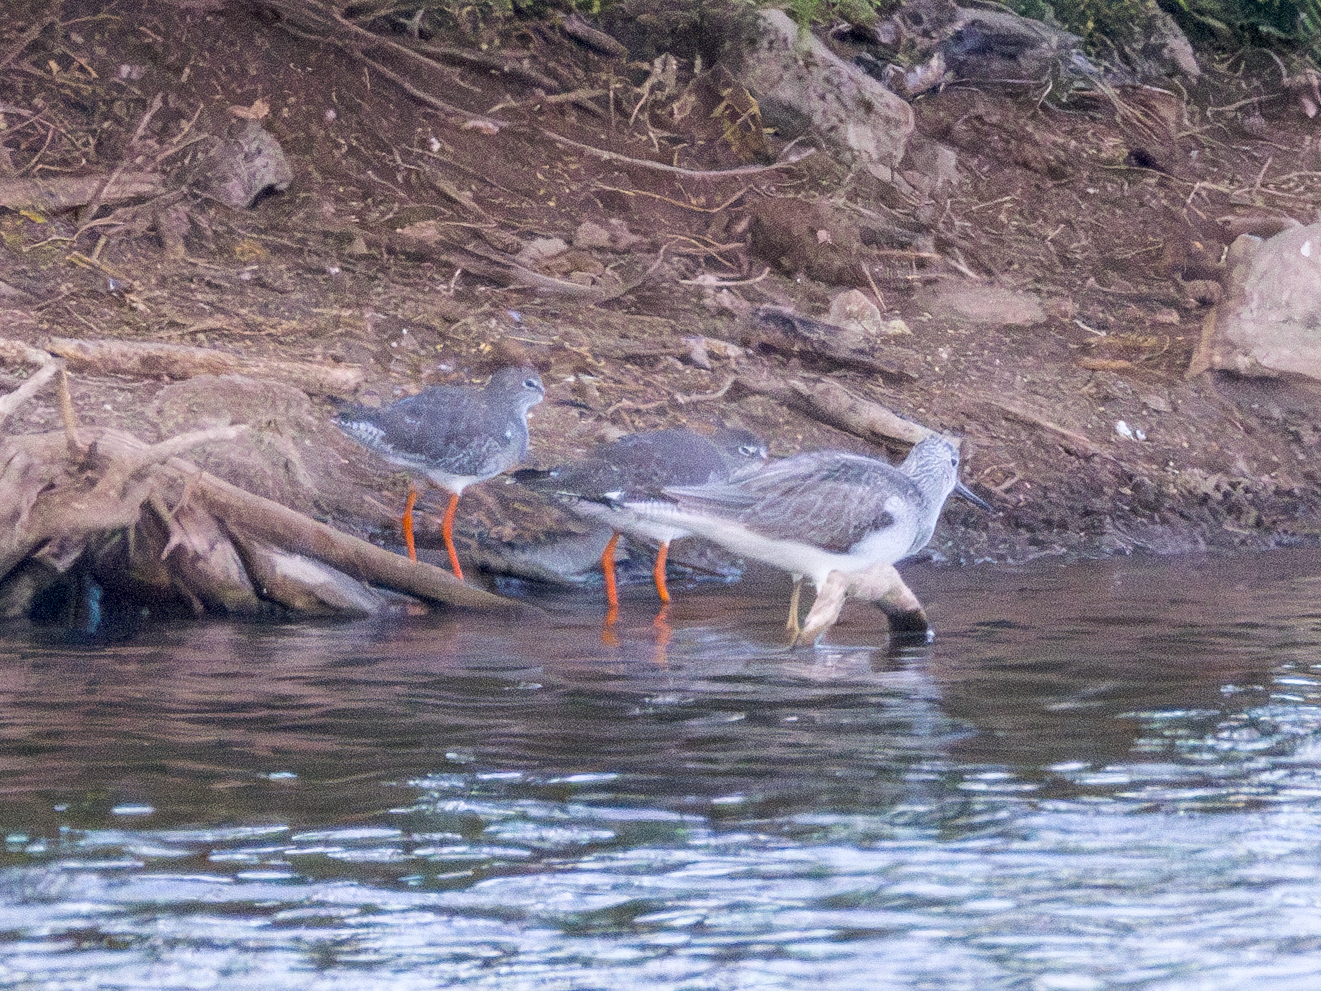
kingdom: Animalia
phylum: Chordata
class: Aves
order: Charadriiformes
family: Scolopacidae
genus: Tringa
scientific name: Tringa totanus
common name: Common redshank
